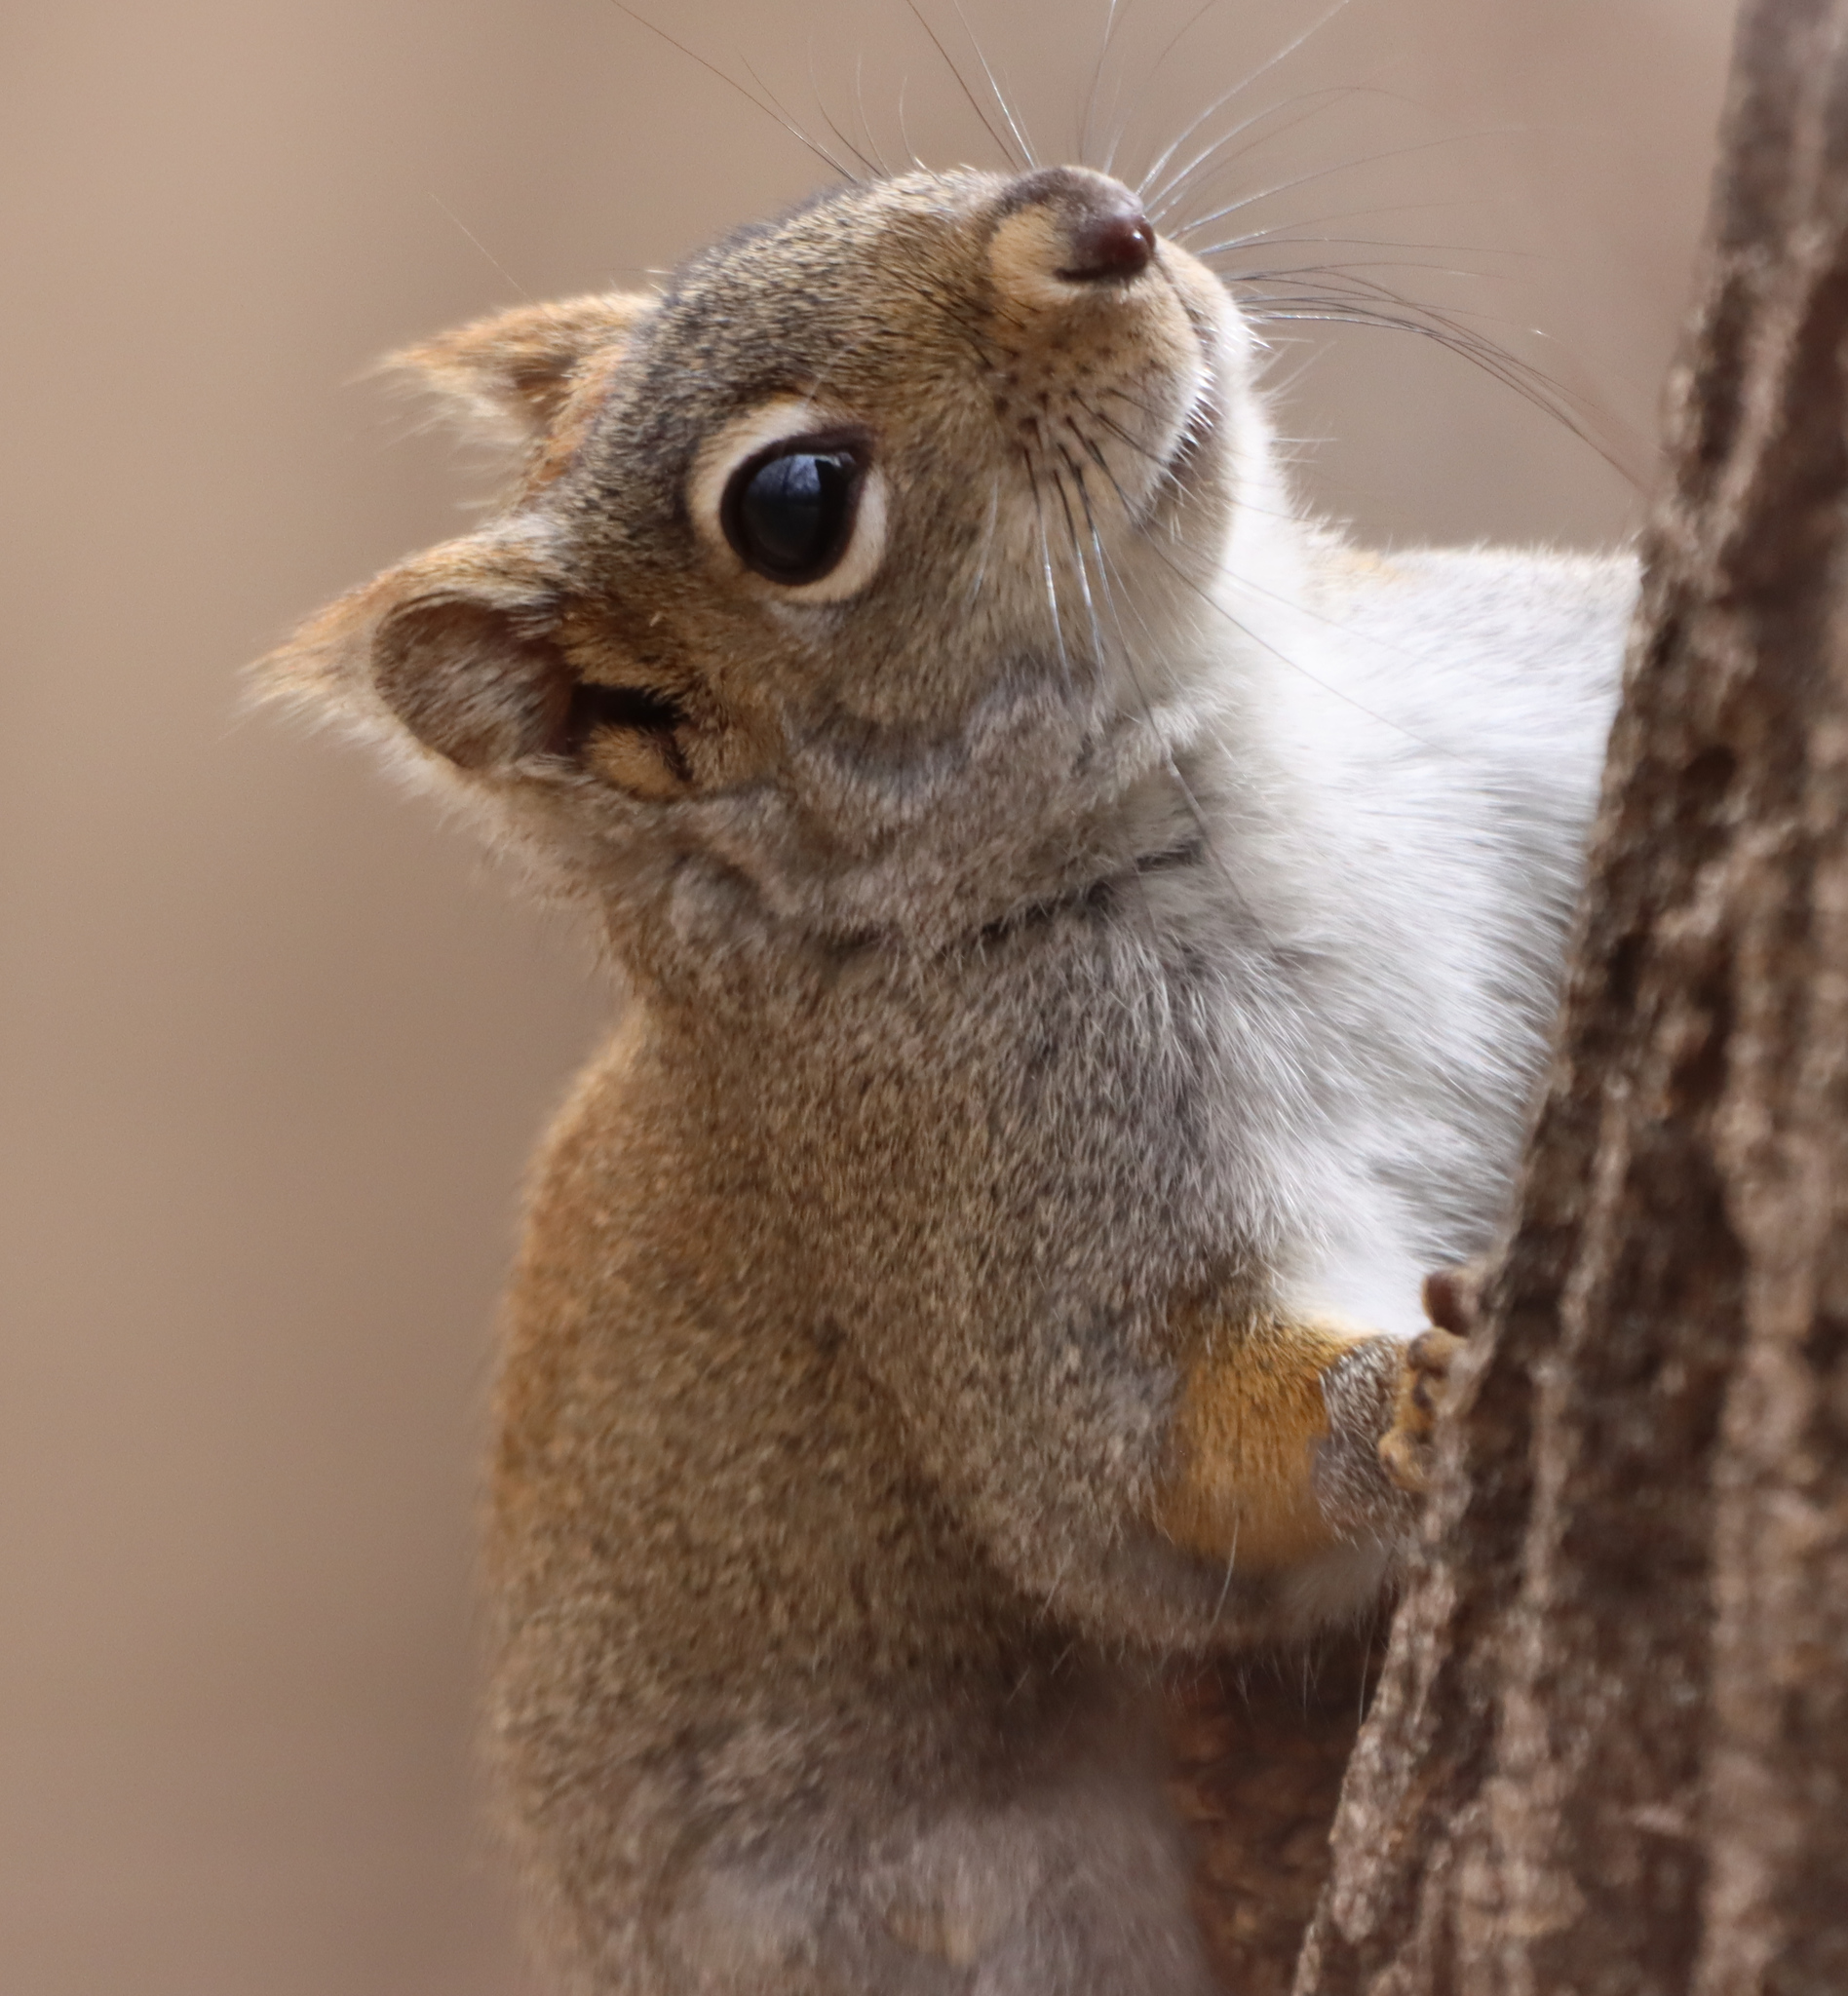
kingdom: Animalia
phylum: Chordata
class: Mammalia
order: Rodentia
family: Sciuridae
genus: Tamiasciurus
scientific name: Tamiasciurus hudsonicus
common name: Red squirrel
